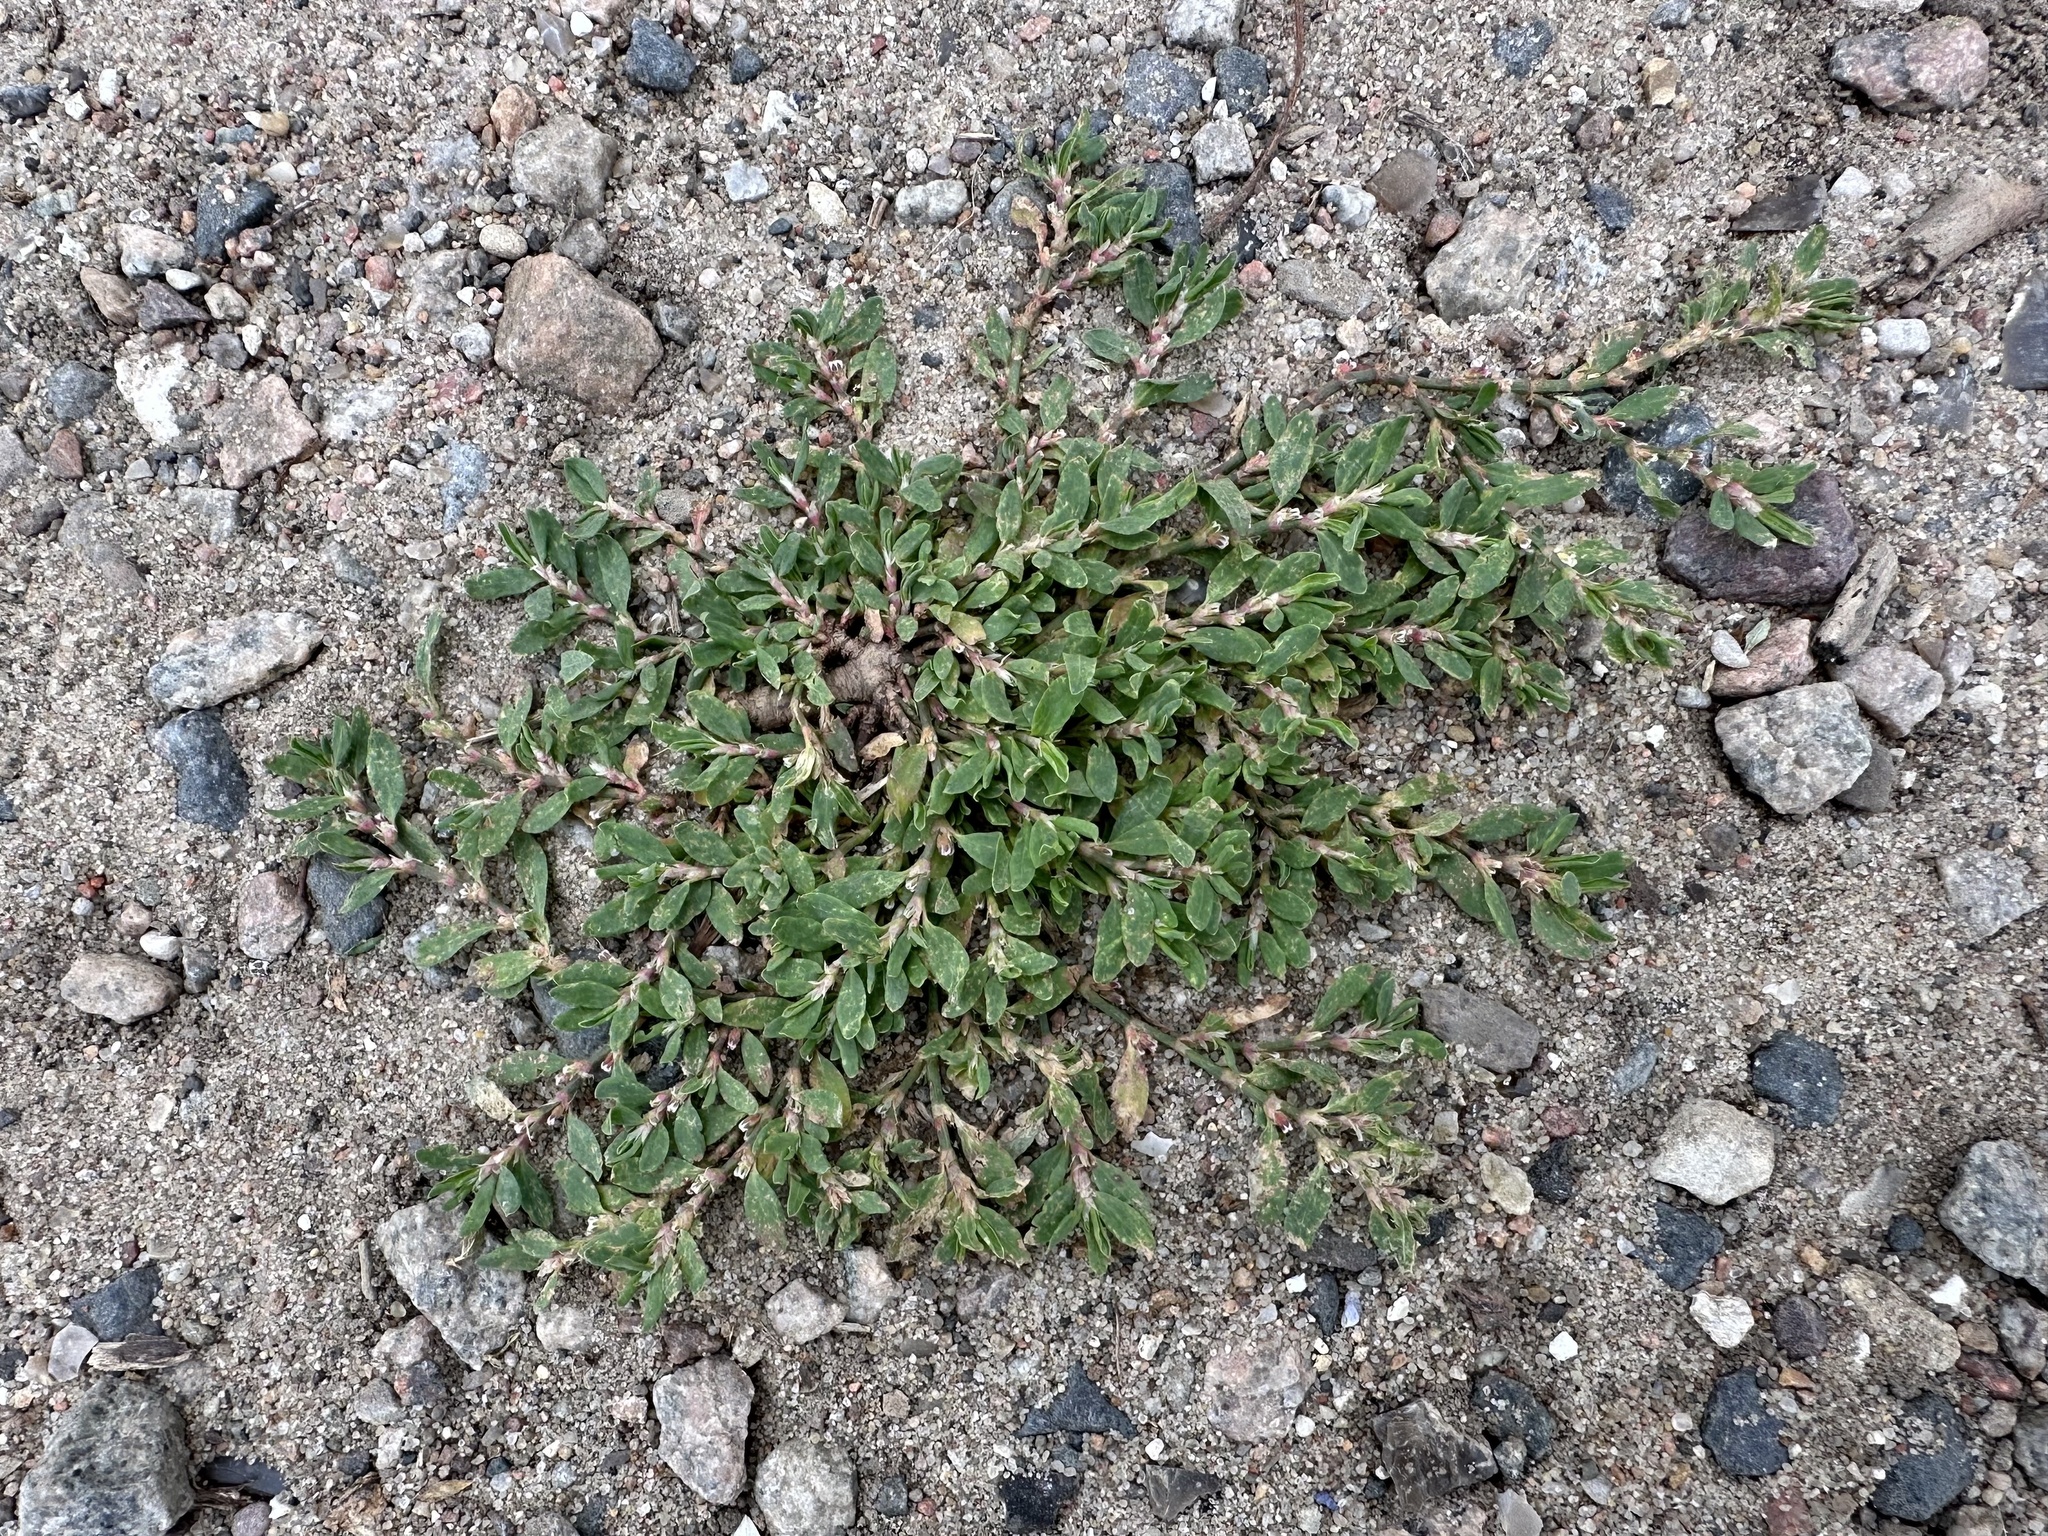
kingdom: Plantae
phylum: Tracheophyta
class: Magnoliopsida
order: Caryophyllales
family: Polygonaceae
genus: Polygonum
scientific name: Polygonum aviculare
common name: Prostrate knotweed
